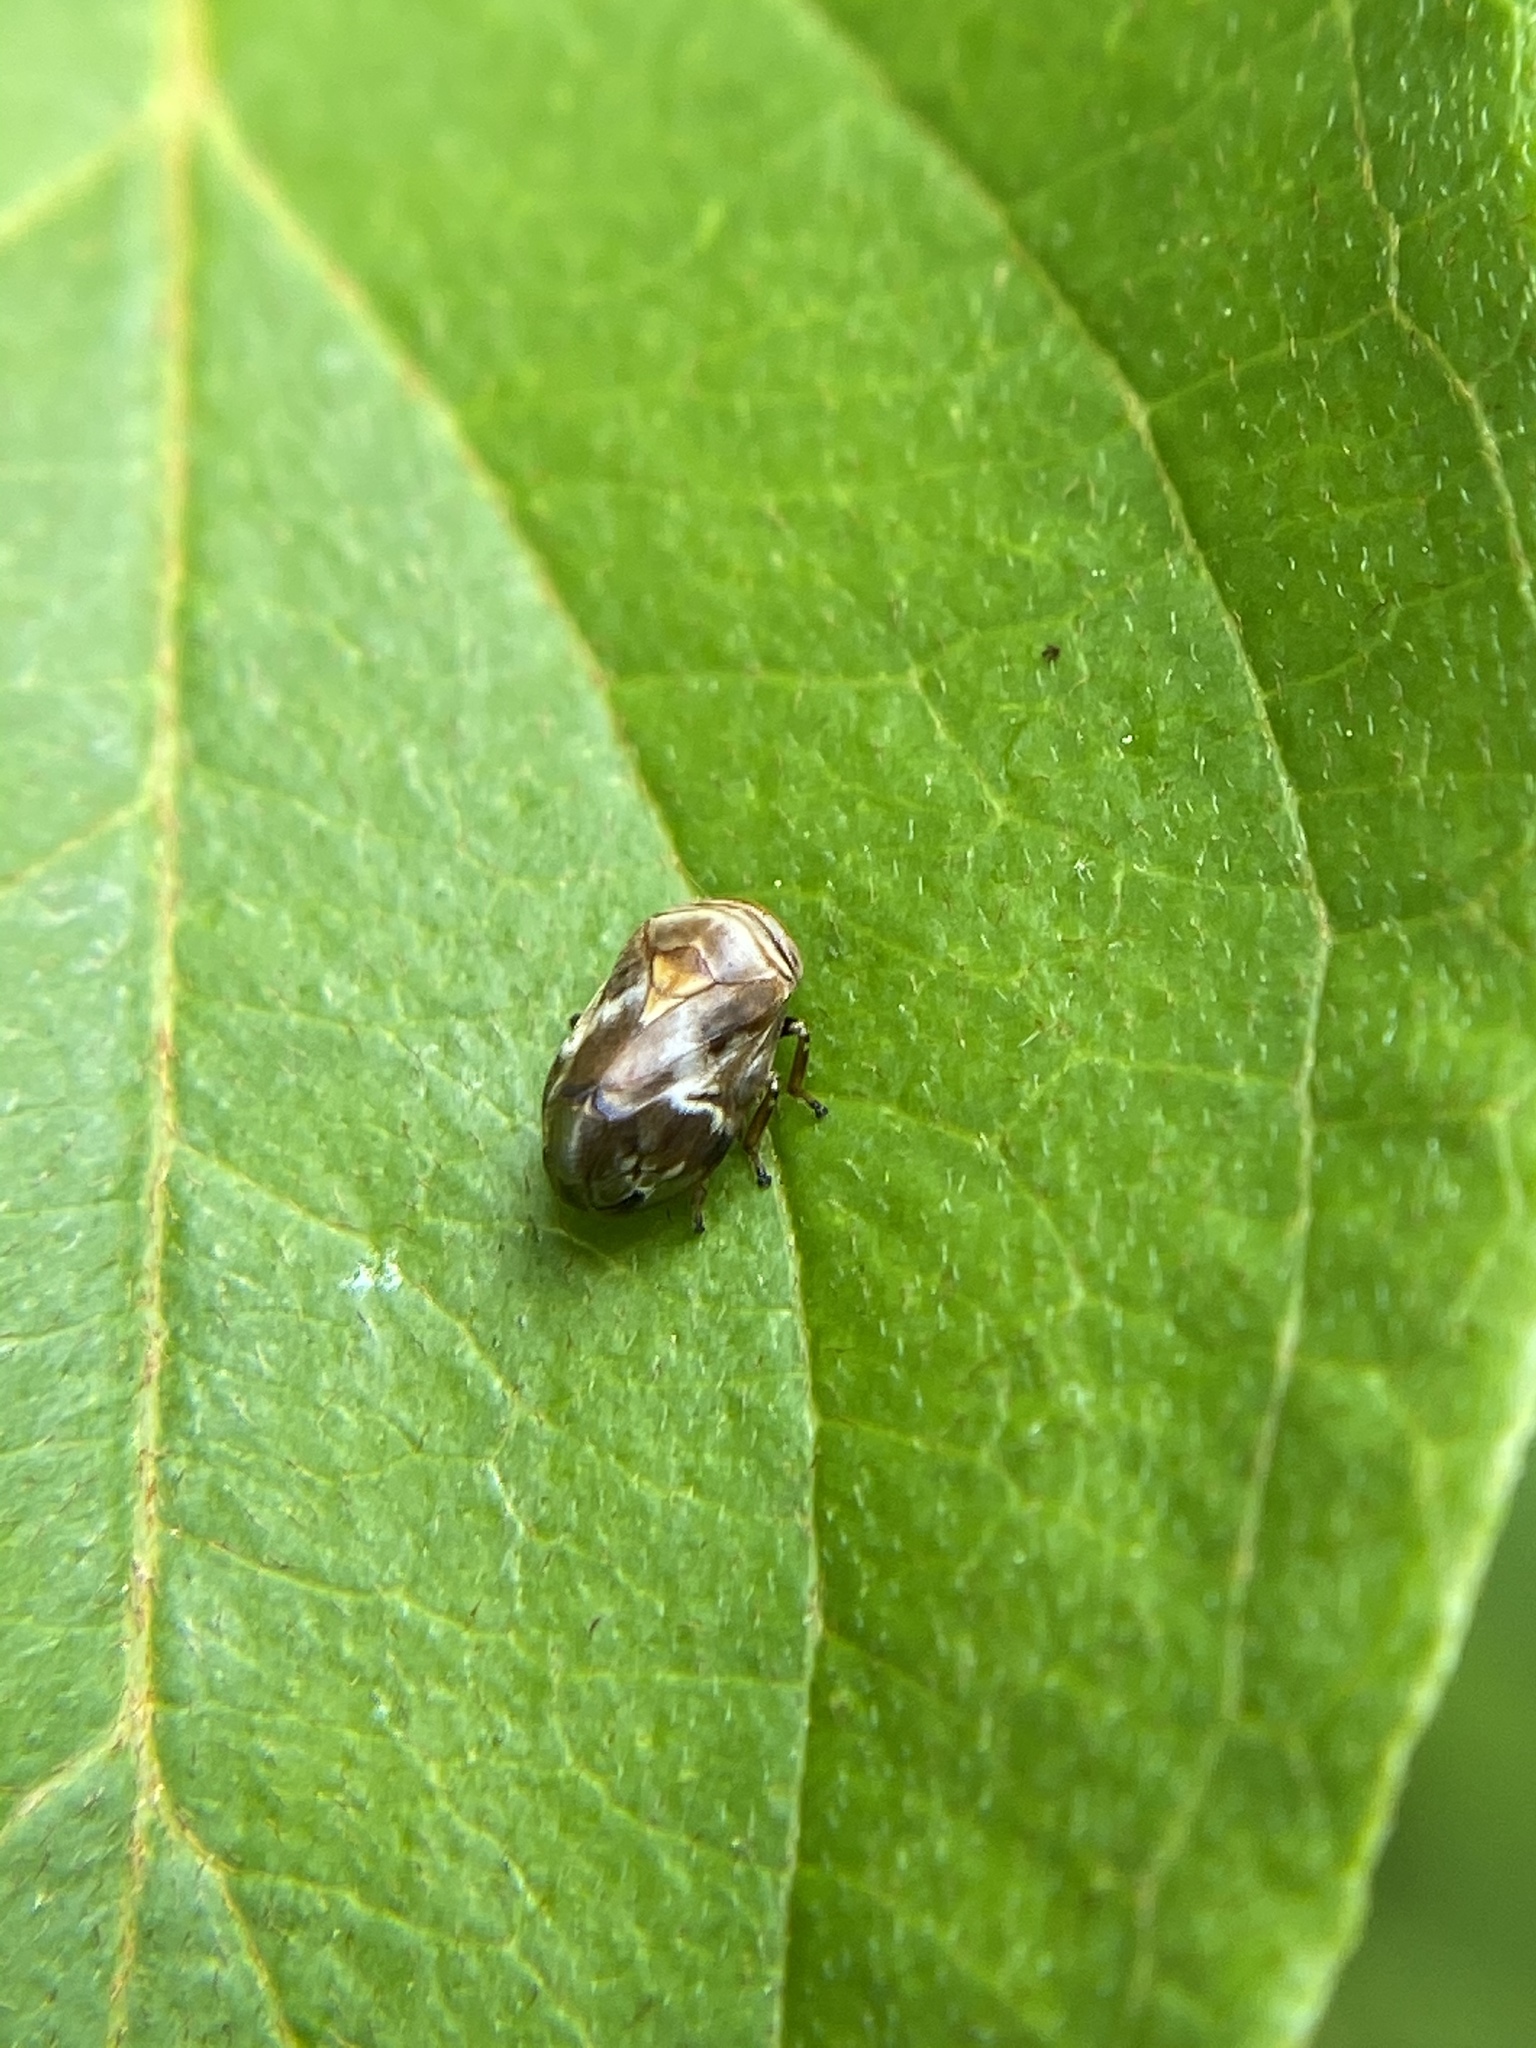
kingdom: Animalia
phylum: Arthropoda
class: Insecta
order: Hemiptera
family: Clastopteridae
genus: Clastoptera
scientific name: Clastoptera obtusa
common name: Alder spittlebug
